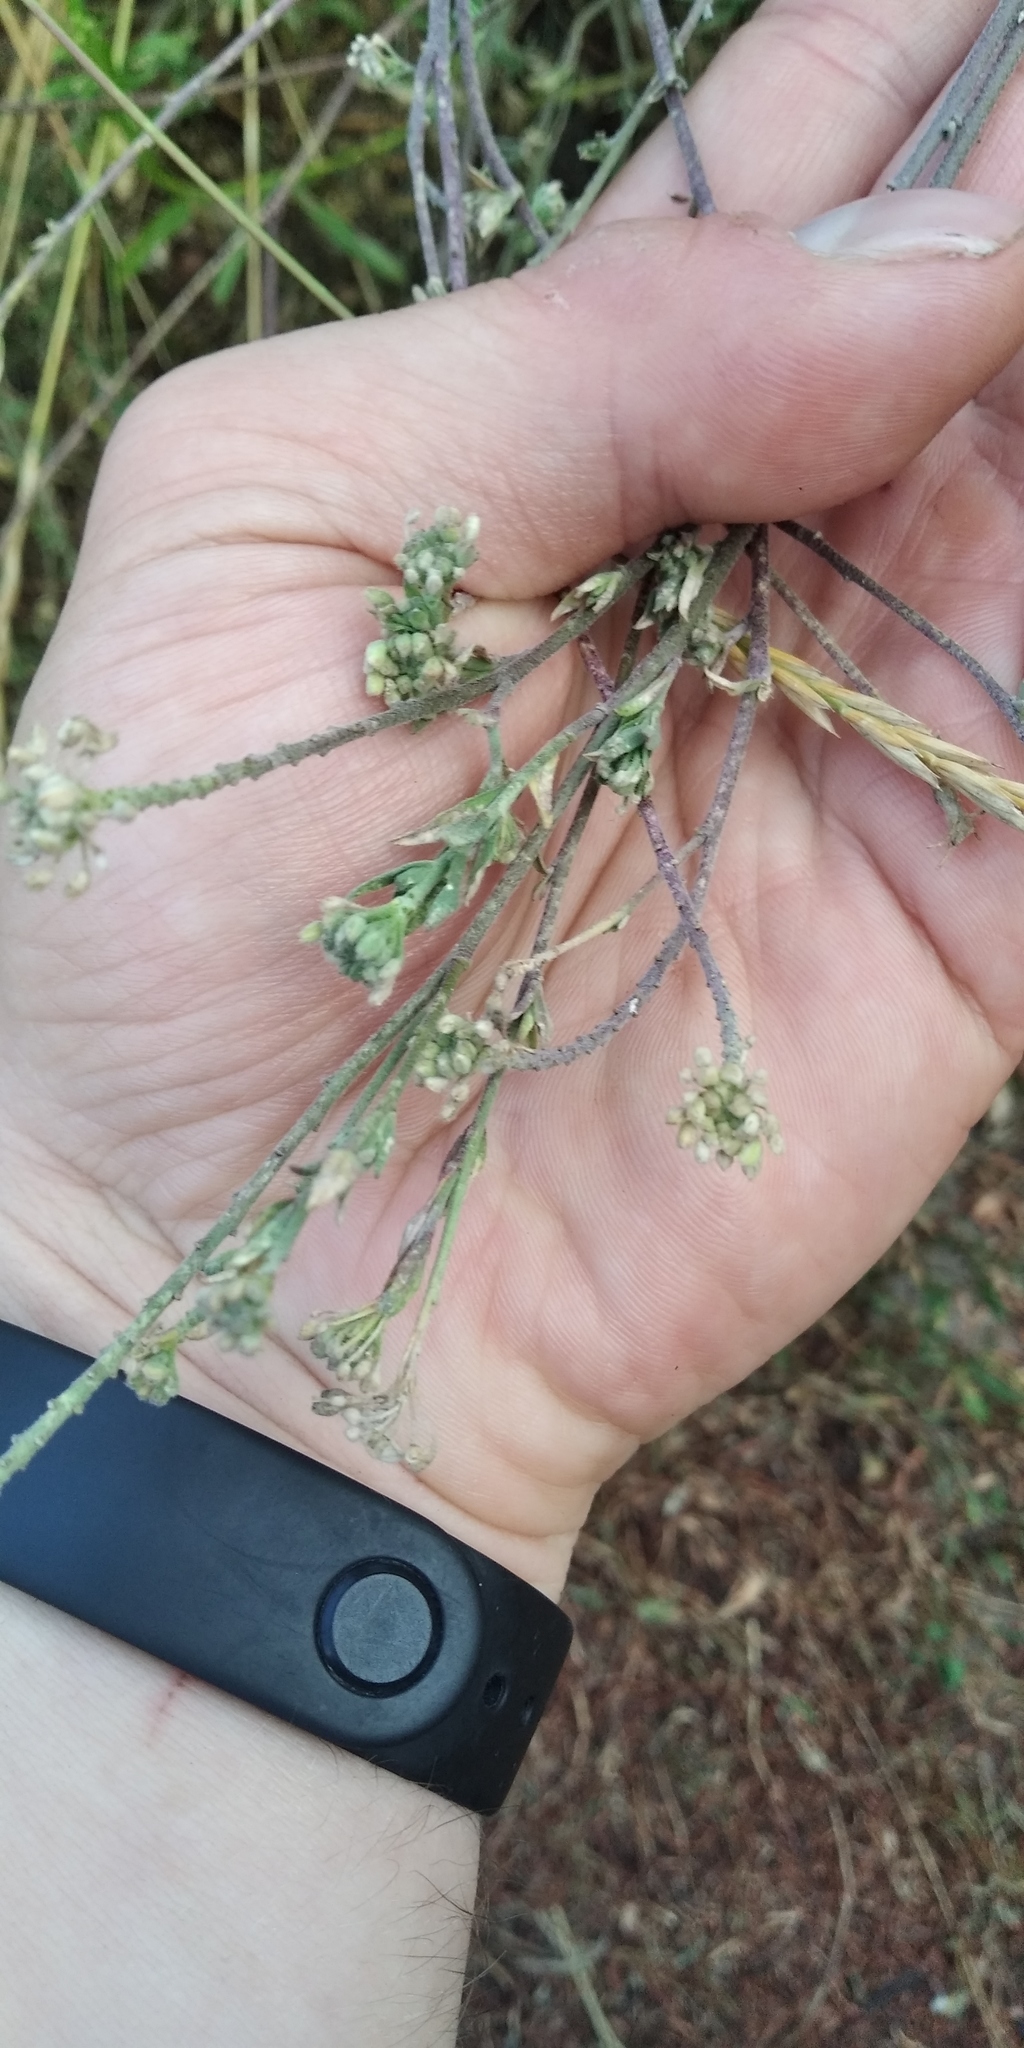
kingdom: Plantae
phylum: Tracheophyta
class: Magnoliopsida
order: Brassicales
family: Brassicaceae
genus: Berteroa
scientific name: Berteroa incana
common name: Hoary alison
